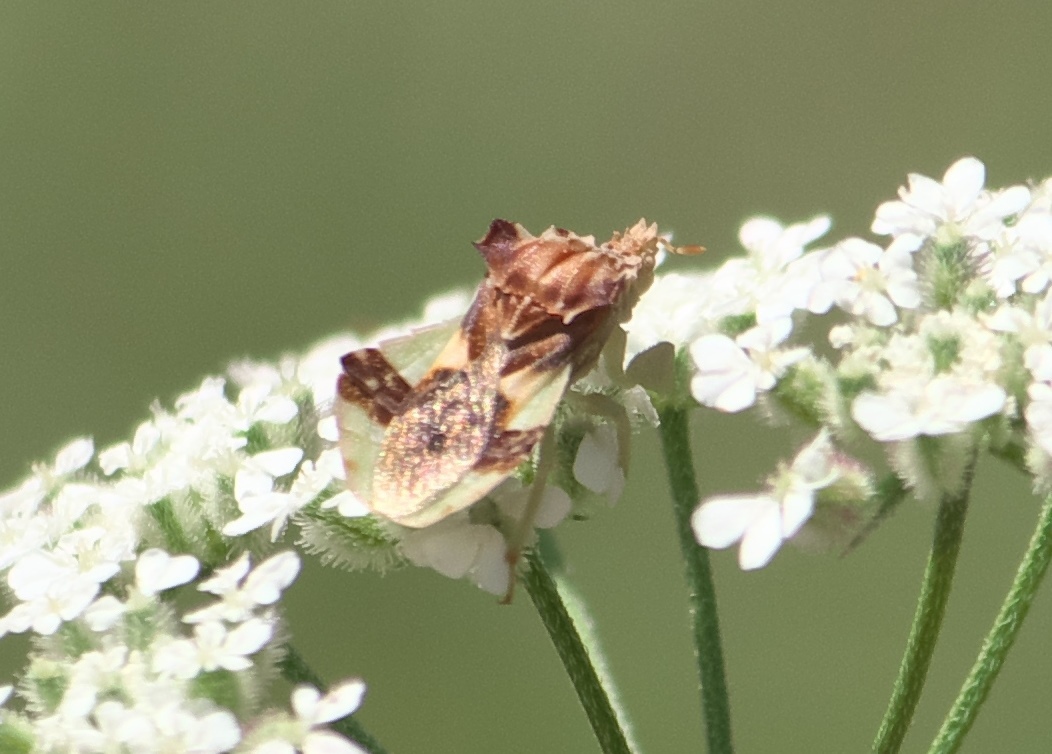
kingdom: Animalia
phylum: Arthropoda
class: Insecta
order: Hemiptera
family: Reduviidae
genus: Phymata
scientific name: Phymata americana
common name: Jagged ambush bug
